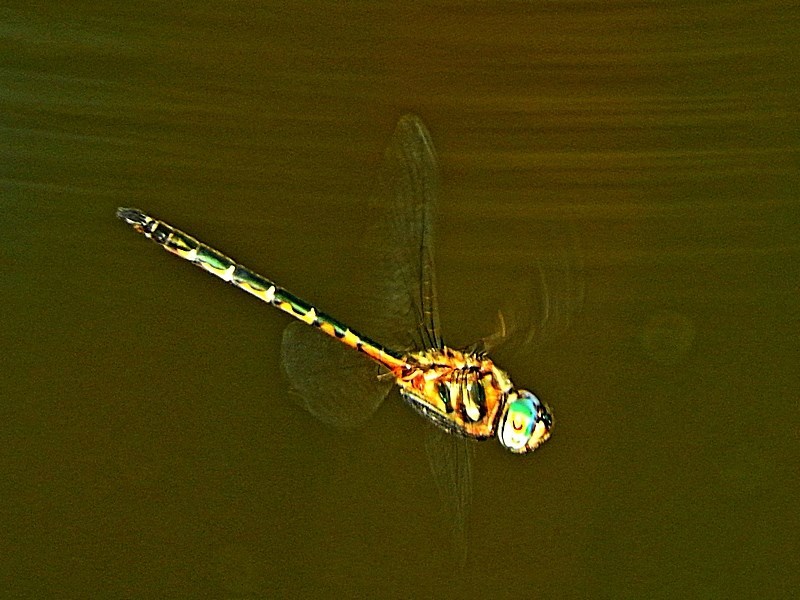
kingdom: Animalia
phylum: Arthropoda
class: Insecta
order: Odonata
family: Corduliidae
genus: Hemicordulia
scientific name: Hemicordulia australiae
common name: Sentry dragonfly
